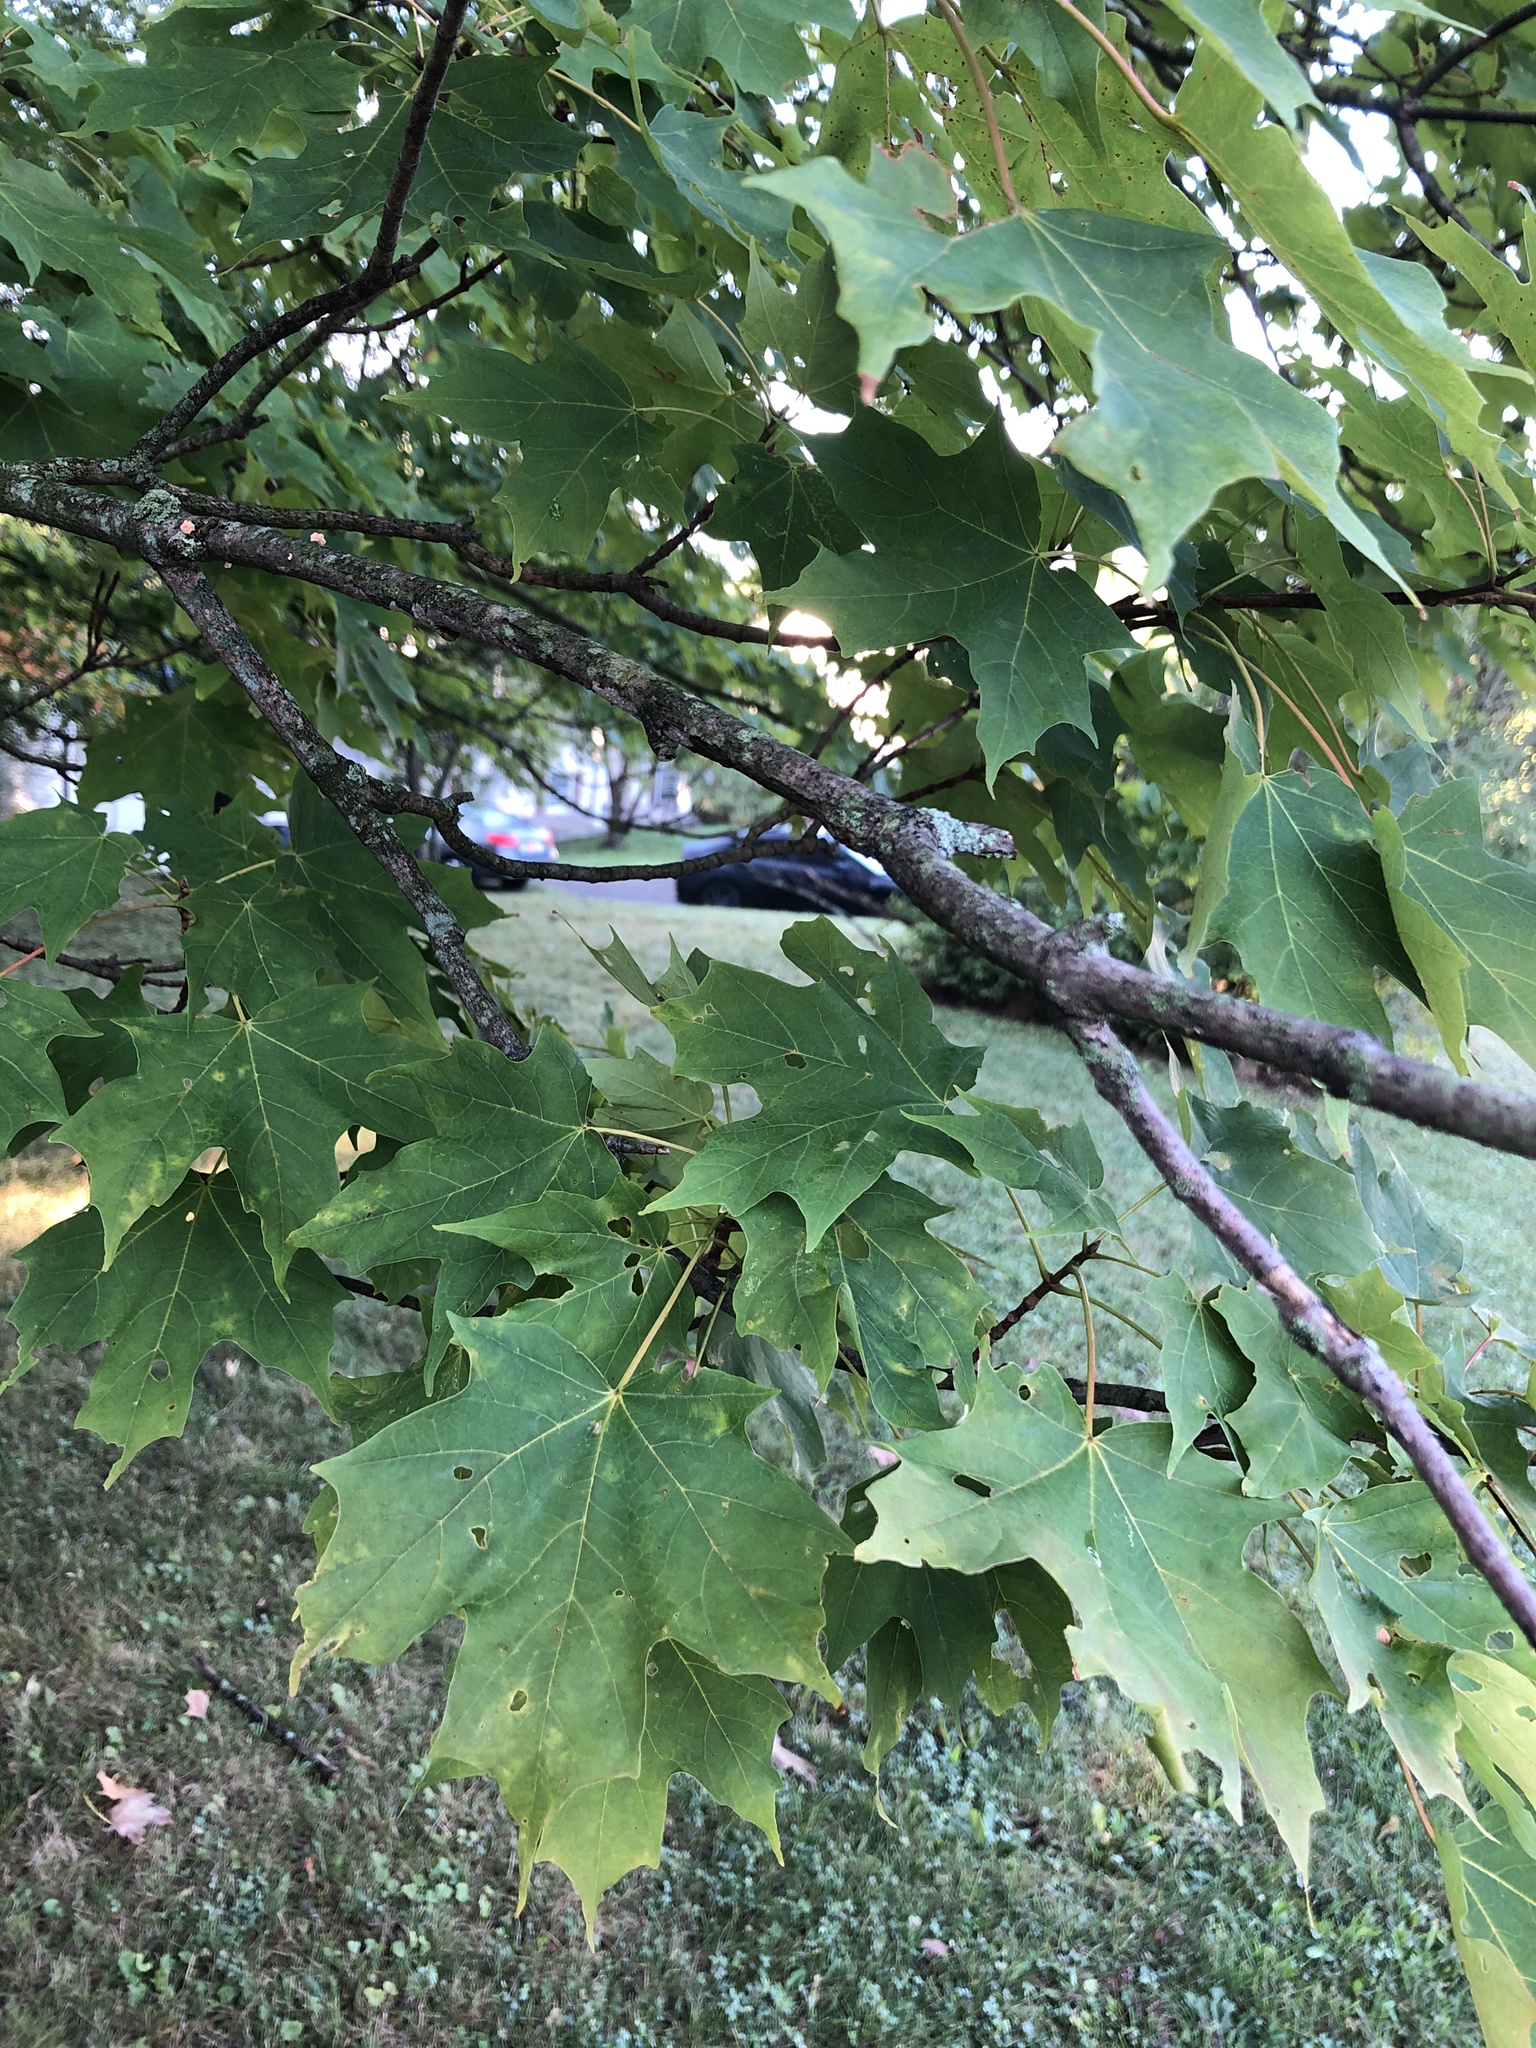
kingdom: Plantae
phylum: Tracheophyta
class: Magnoliopsida
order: Sapindales
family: Sapindaceae
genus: Acer
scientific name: Acer saccharum
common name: Sugar maple
